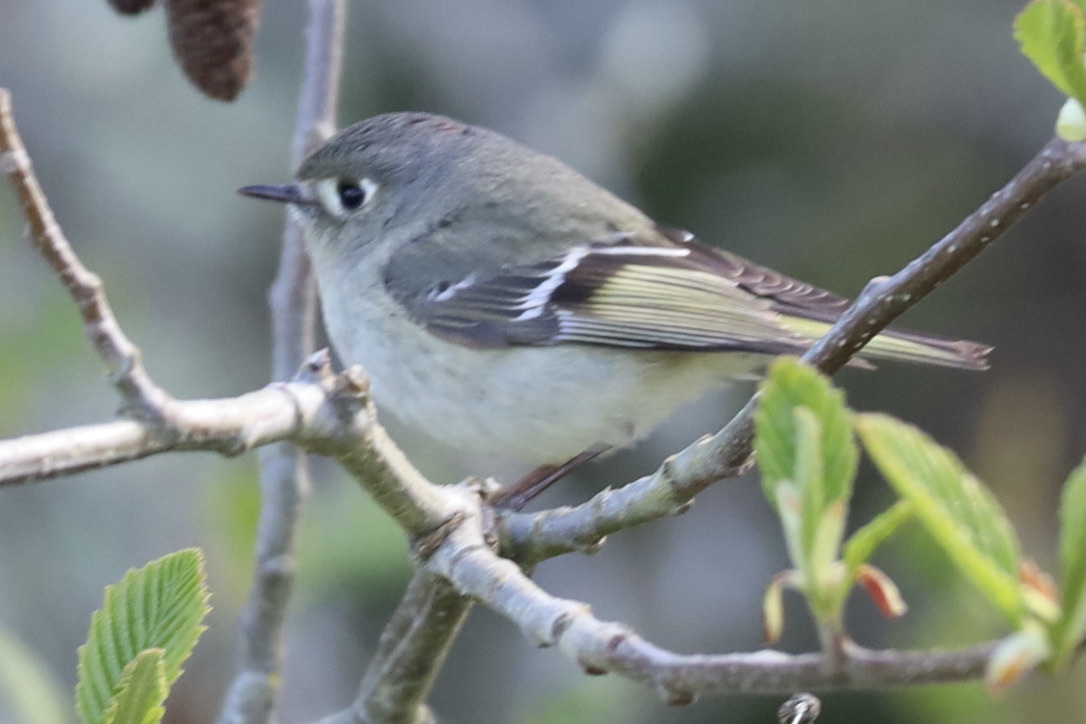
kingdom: Animalia
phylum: Chordata
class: Aves
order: Passeriformes
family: Regulidae
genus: Regulus
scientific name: Regulus calendula
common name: Ruby-crowned kinglet
